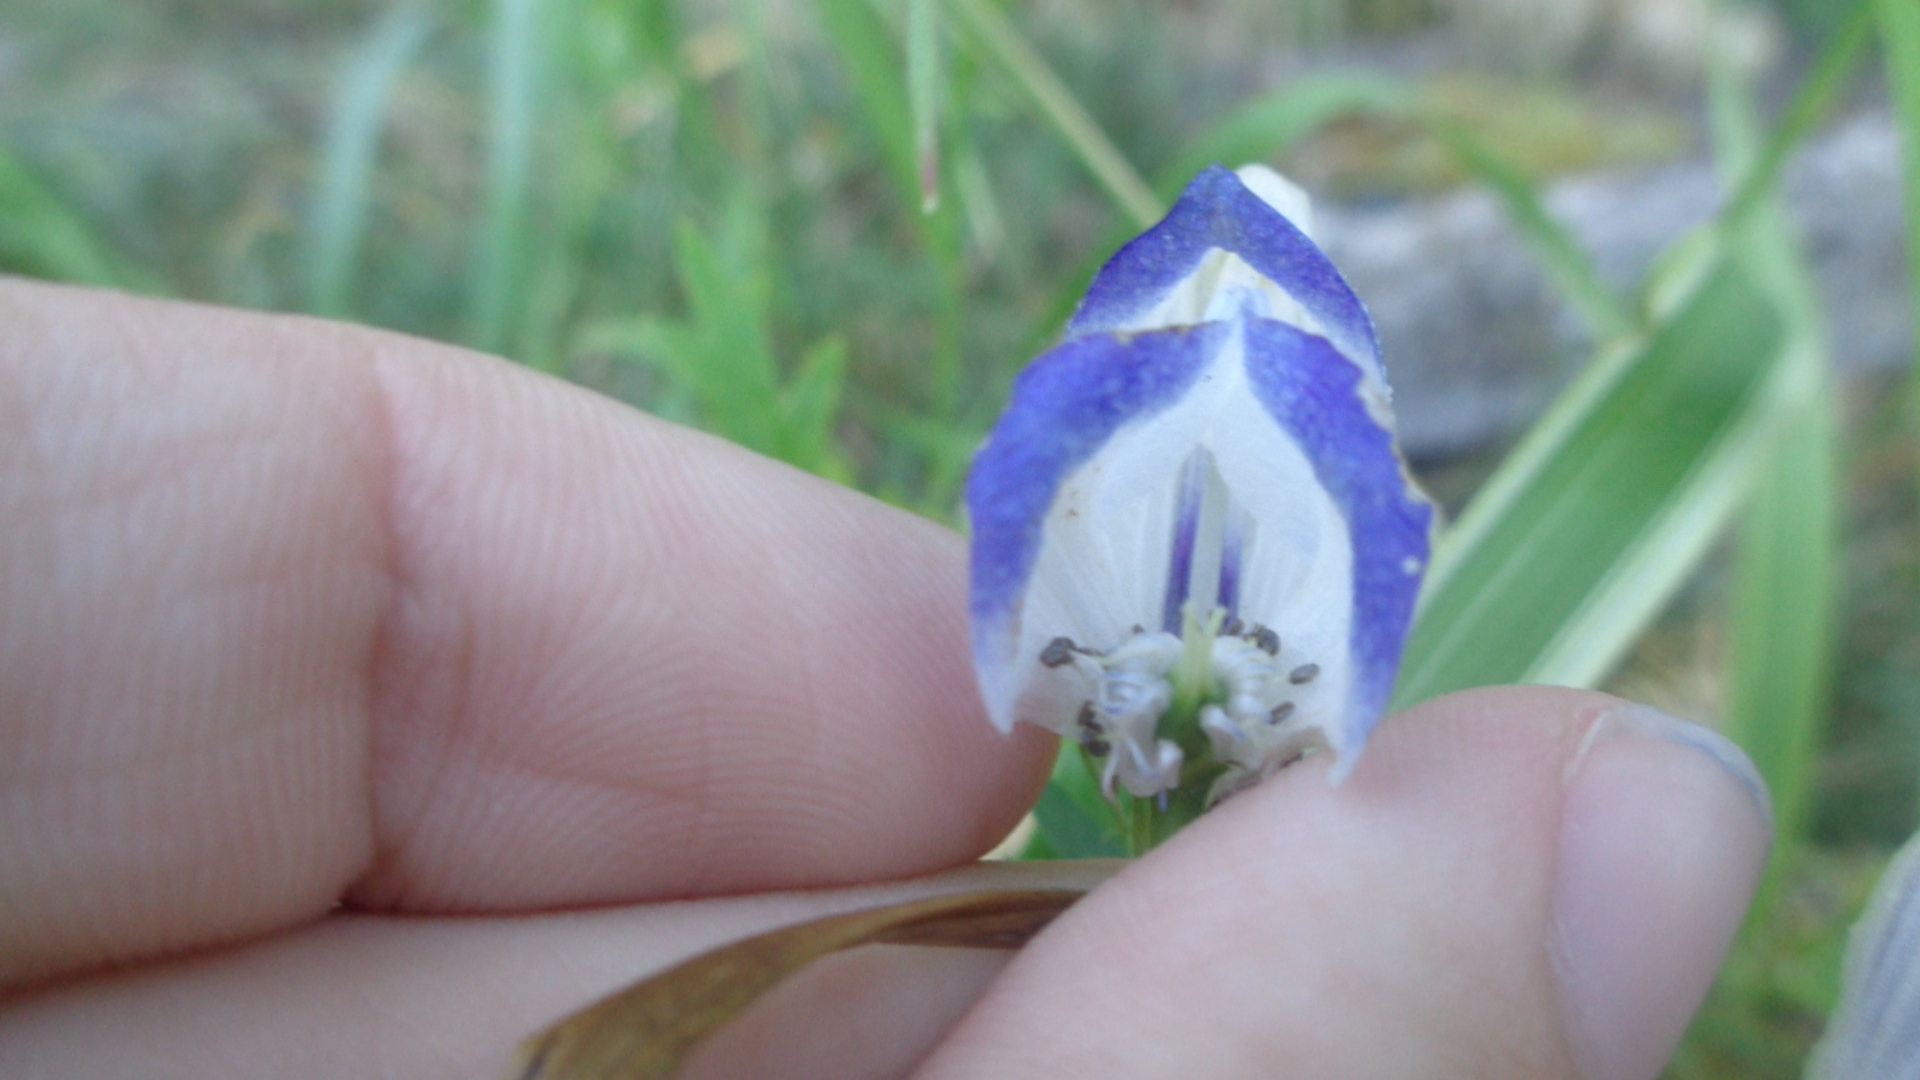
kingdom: Plantae
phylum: Tracheophyta
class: Magnoliopsida
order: Ranunculales
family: Ranunculaceae
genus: Aconitum
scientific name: Aconitum cammarum
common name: Hybrid monk's-hood
